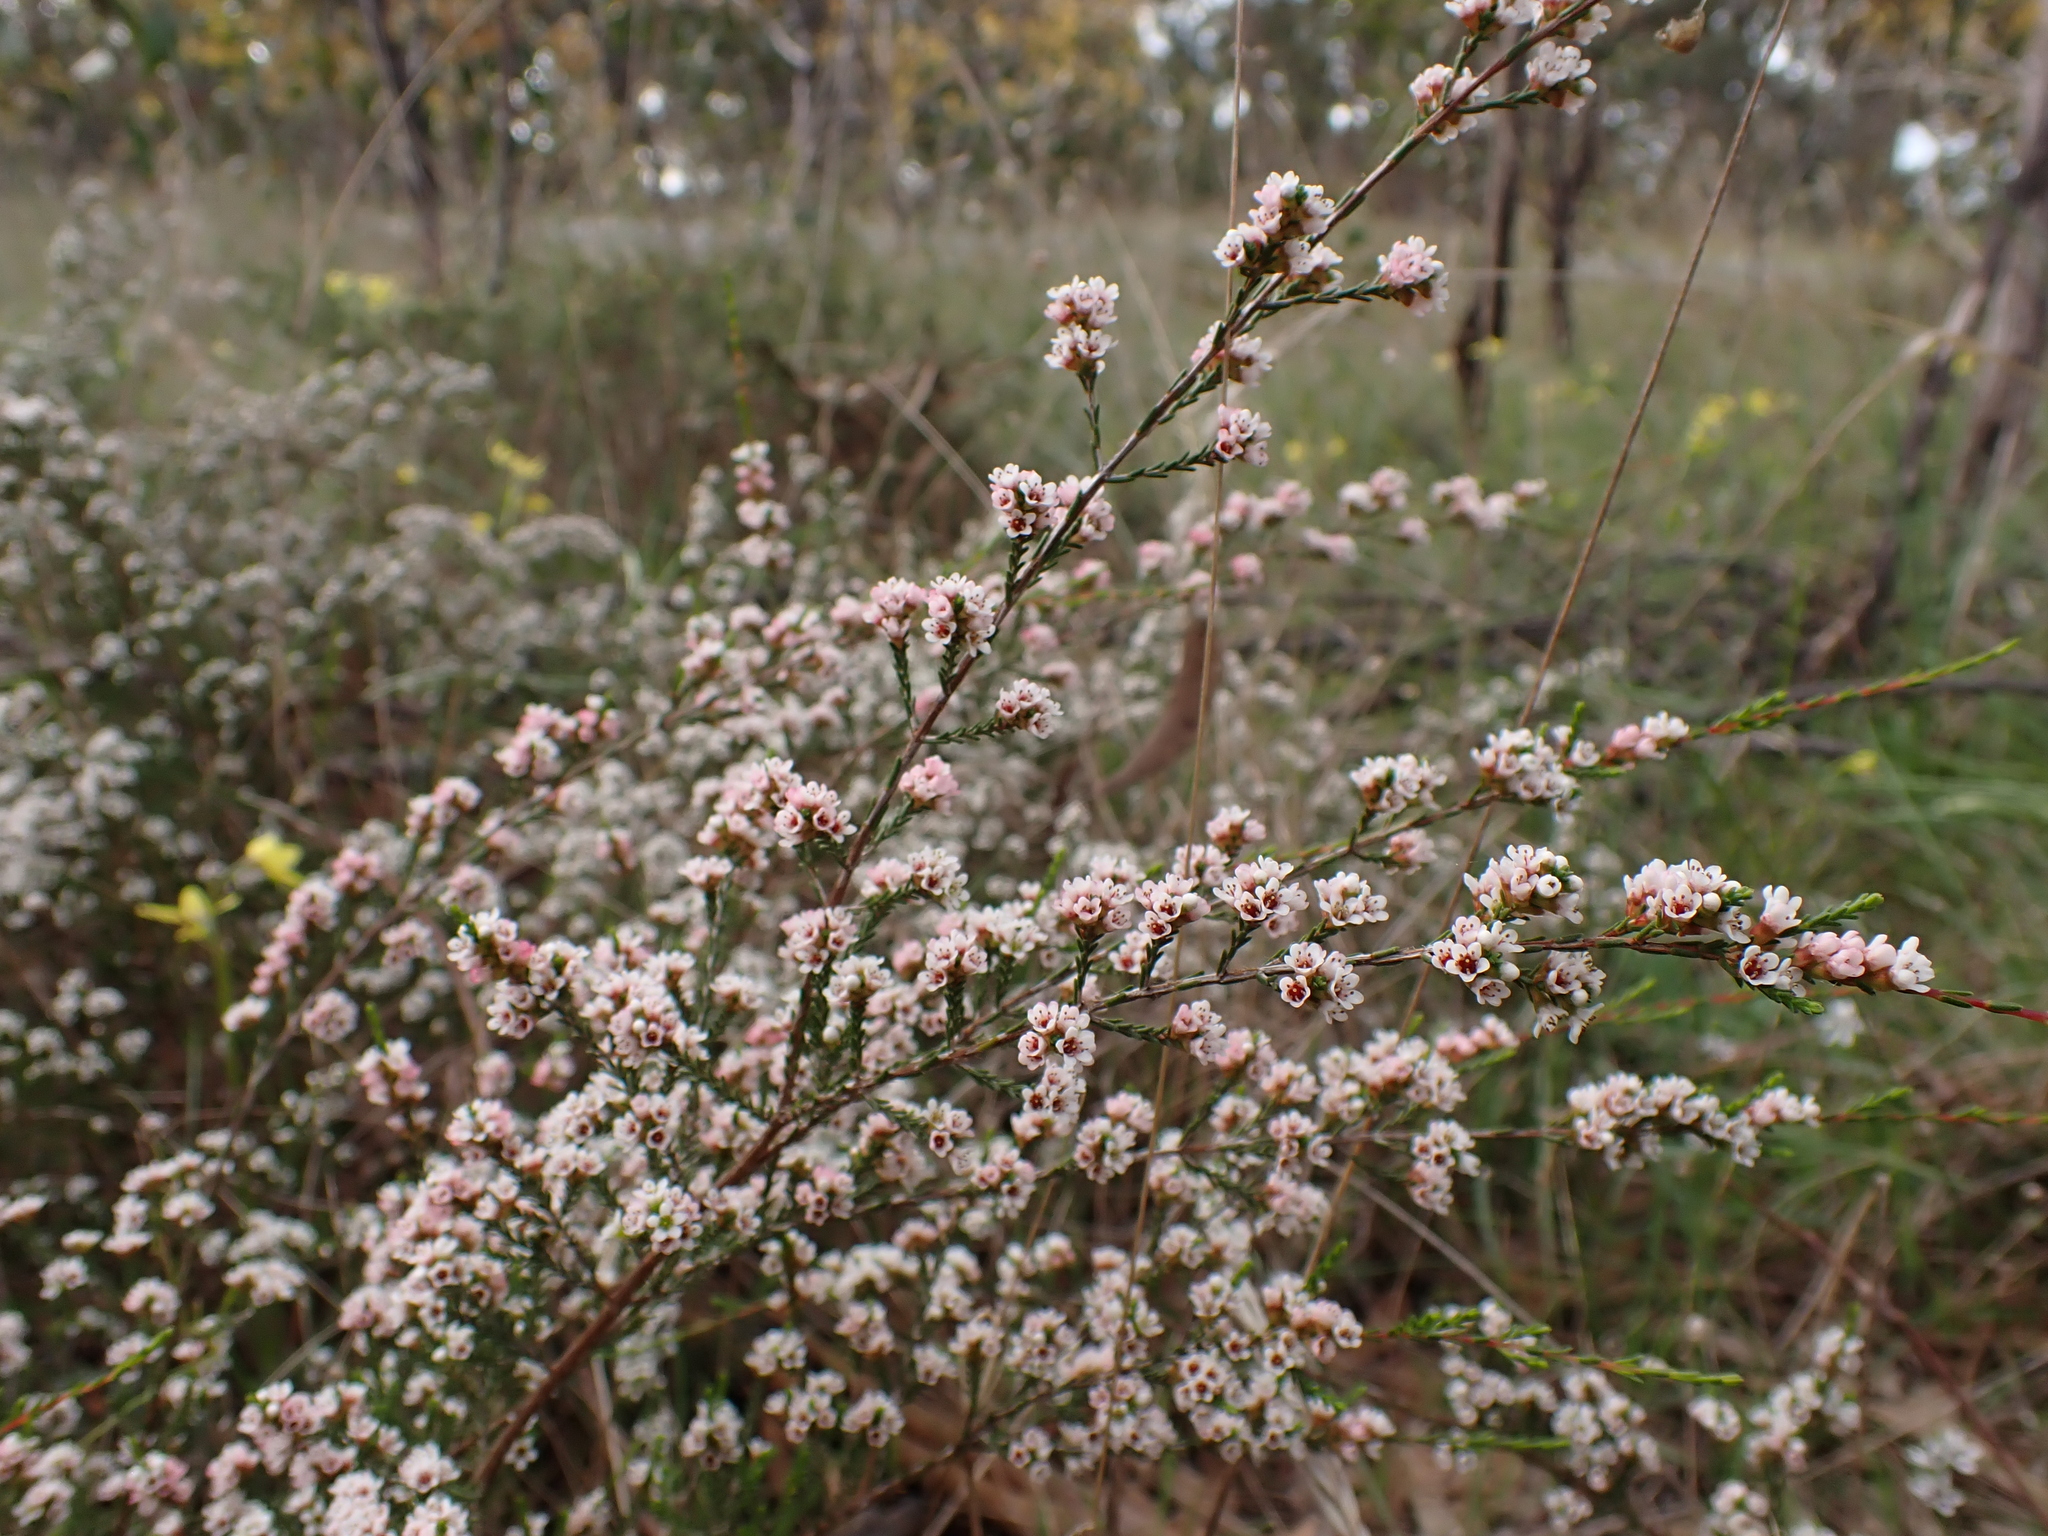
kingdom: Plantae
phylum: Tracheophyta
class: Magnoliopsida
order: Myrtales
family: Myrtaceae
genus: Micromyrtus
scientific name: Micromyrtus ciliata
